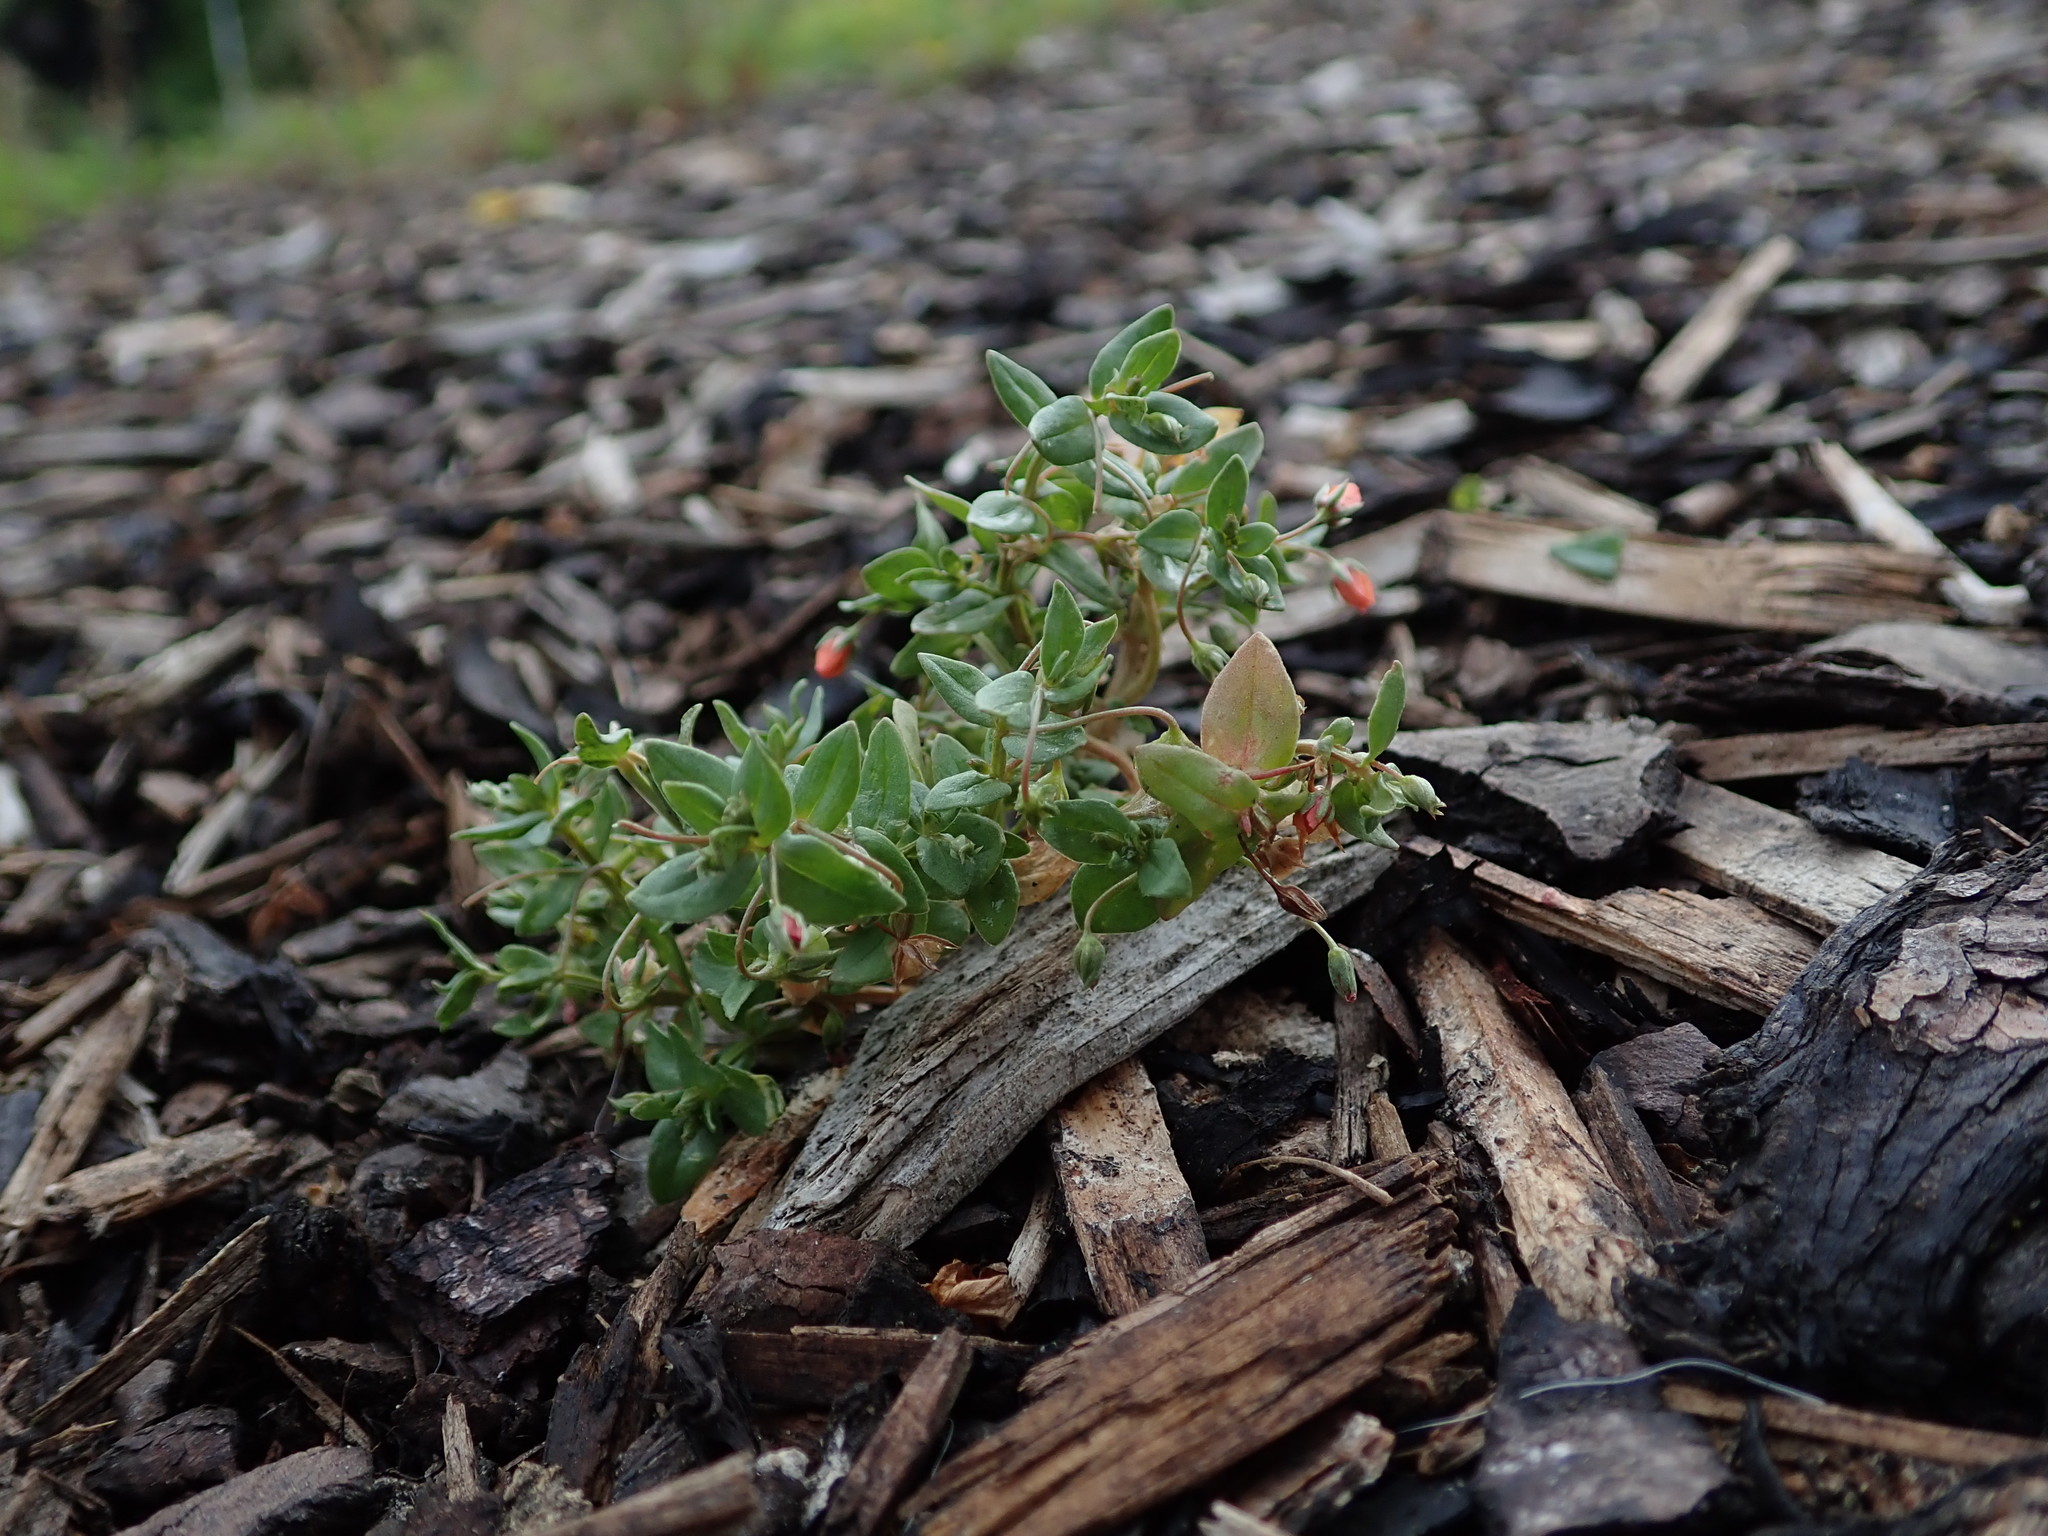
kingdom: Plantae
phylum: Tracheophyta
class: Magnoliopsida
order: Ericales
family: Primulaceae
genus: Lysimachia
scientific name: Lysimachia arvensis
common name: Scarlet pimpernel
